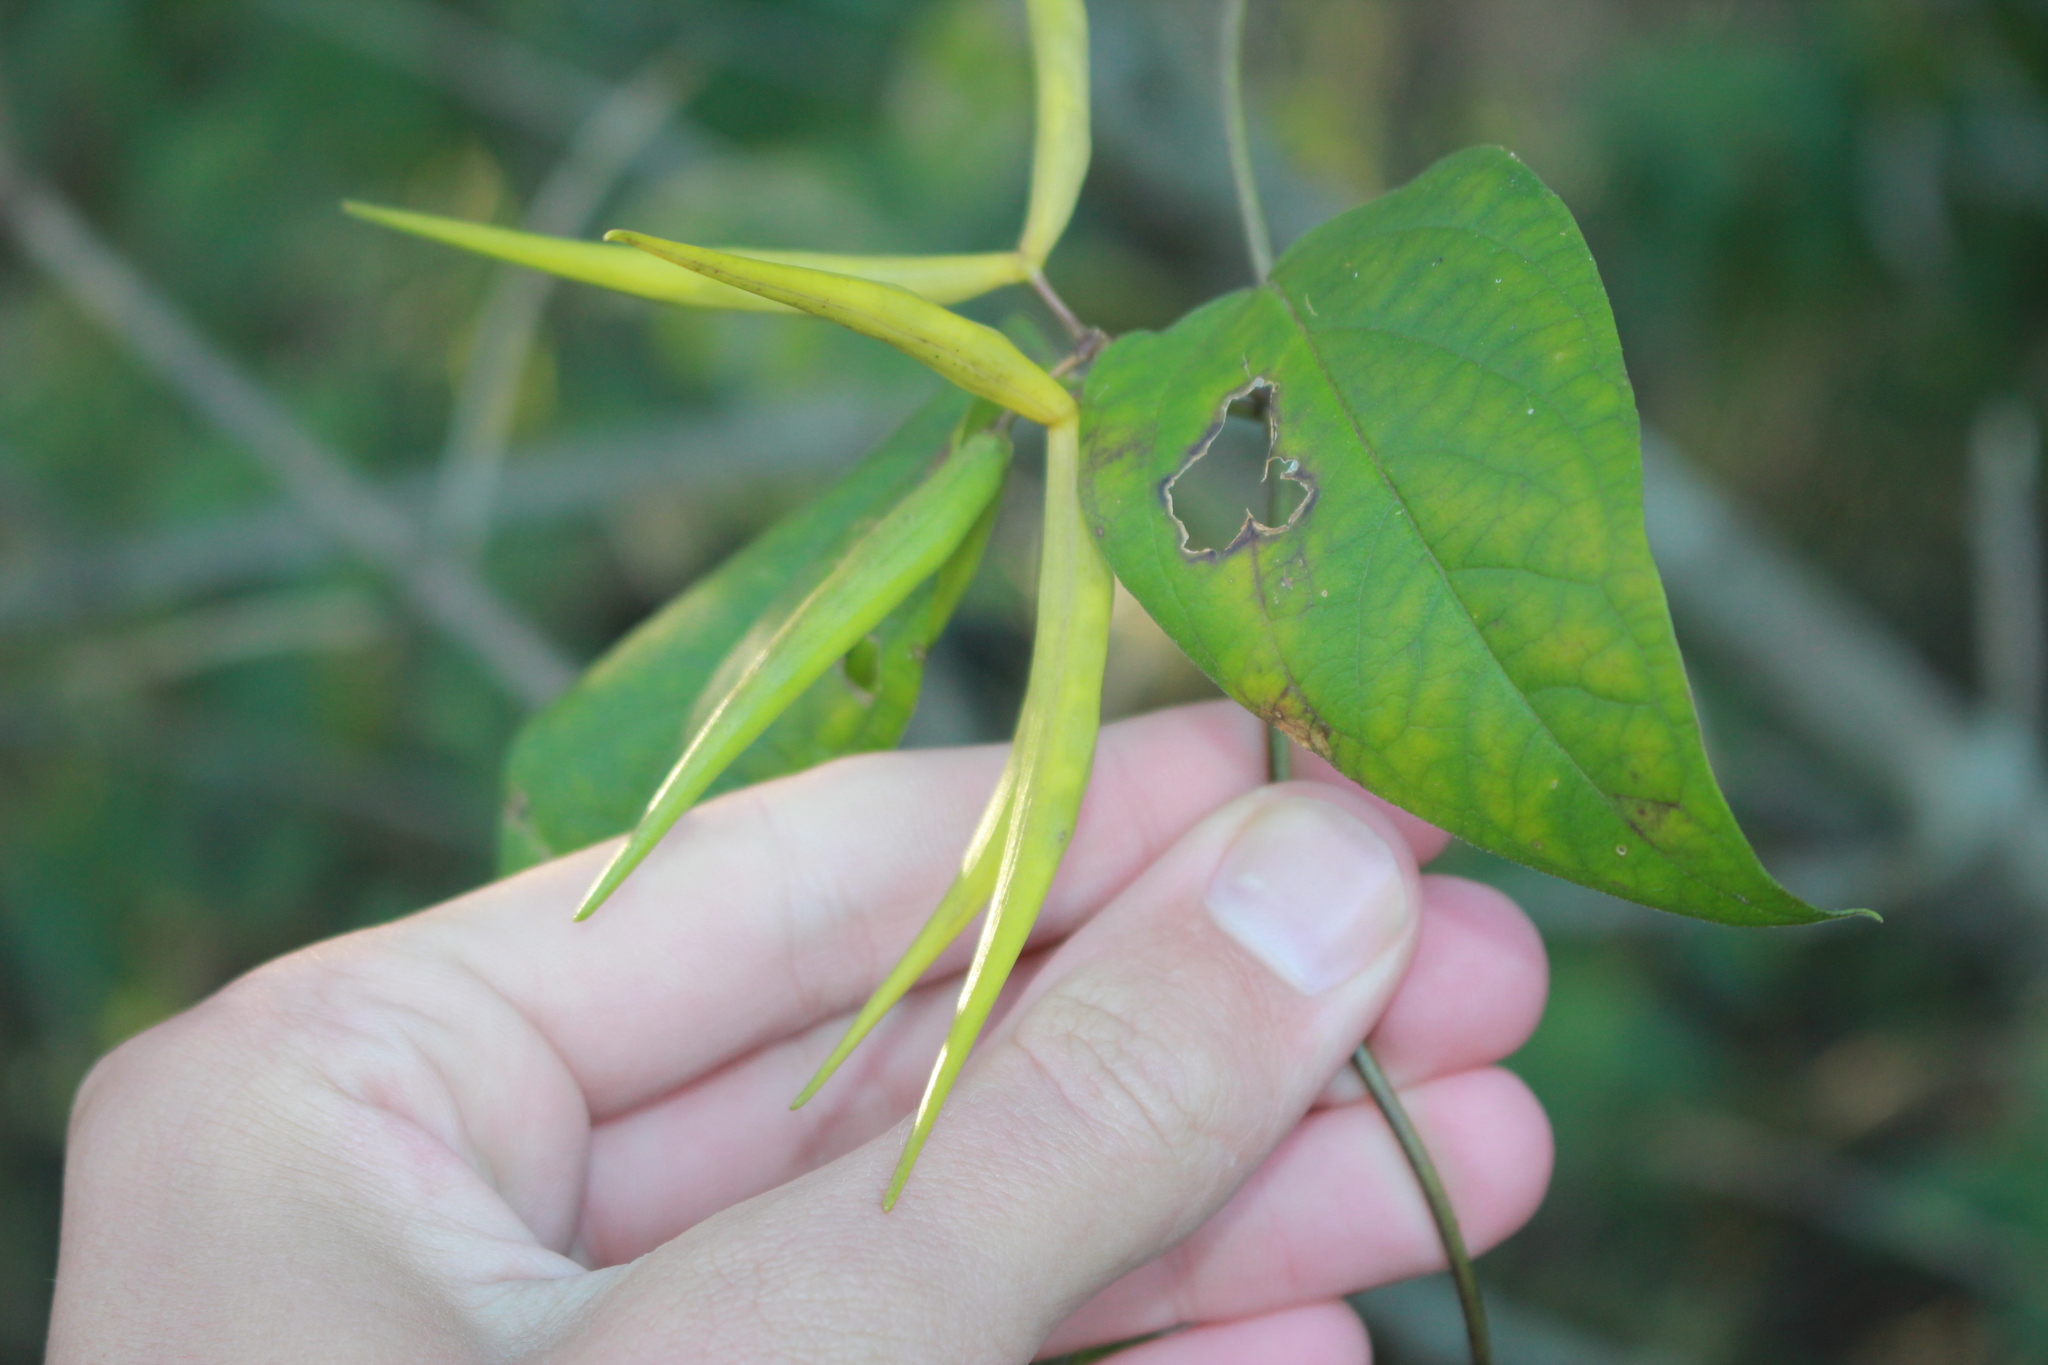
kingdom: Plantae
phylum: Tracheophyta
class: Magnoliopsida
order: Gentianales
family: Apocynaceae
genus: Vincetoxicum
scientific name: Vincetoxicum rossicum
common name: Dog-strangling vine
